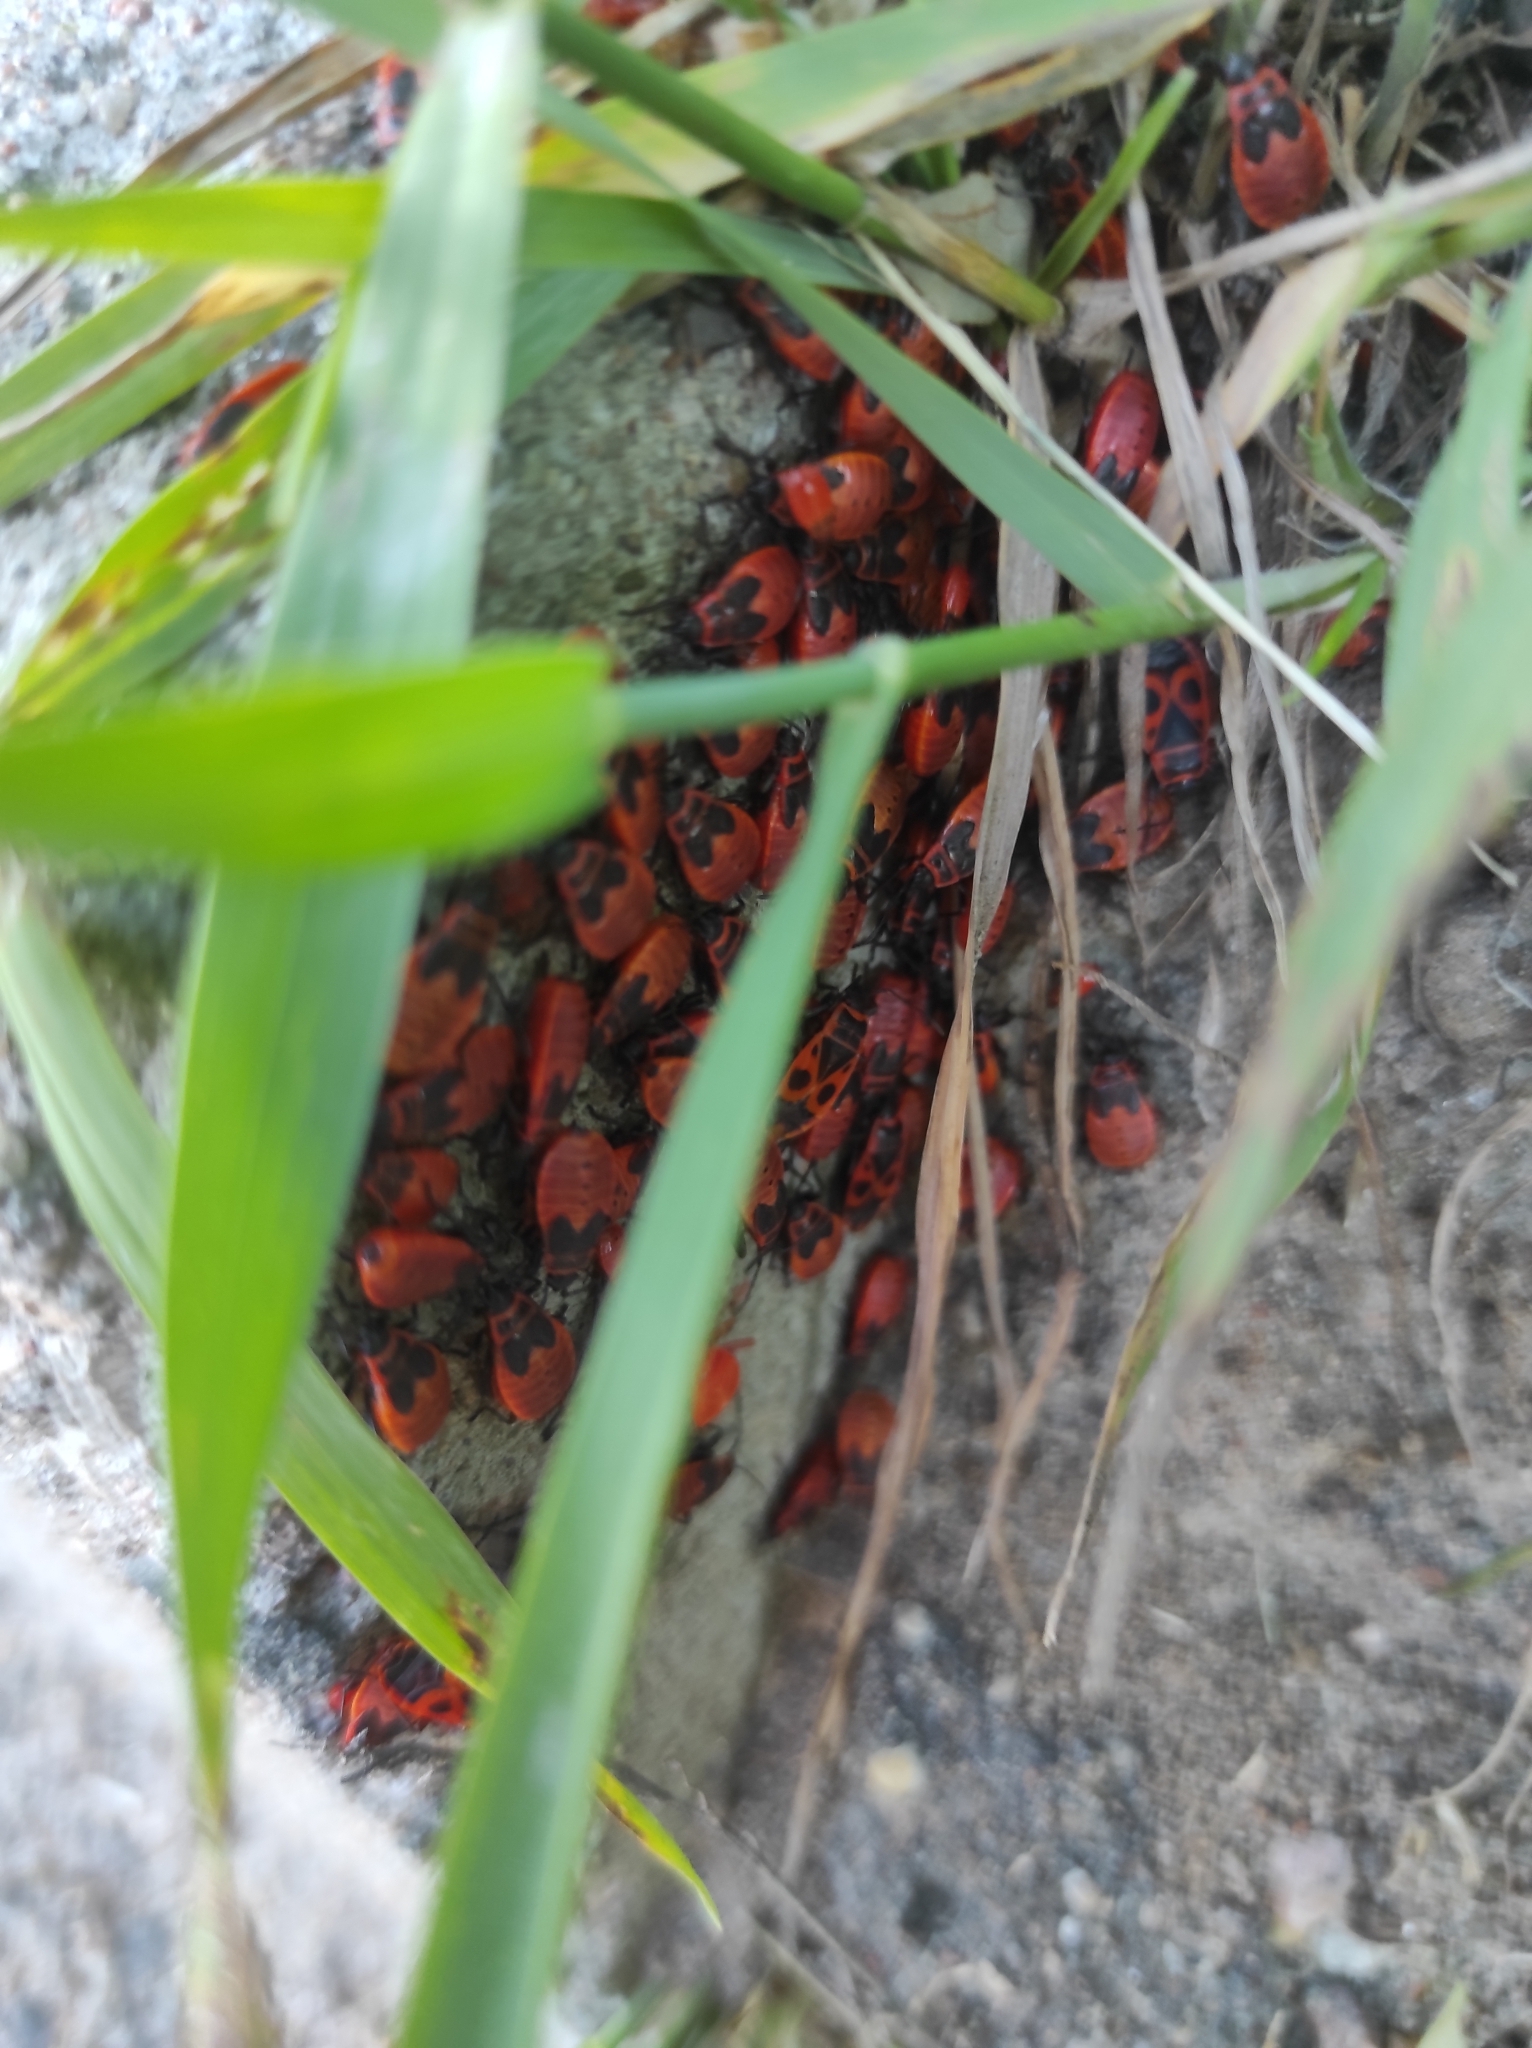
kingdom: Animalia
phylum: Arthropoda
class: Insecta
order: Hemiptera
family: Pyrrhocoridae
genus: Pyrrhocoris
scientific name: Pyrrhocoris apterus
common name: Firebug
